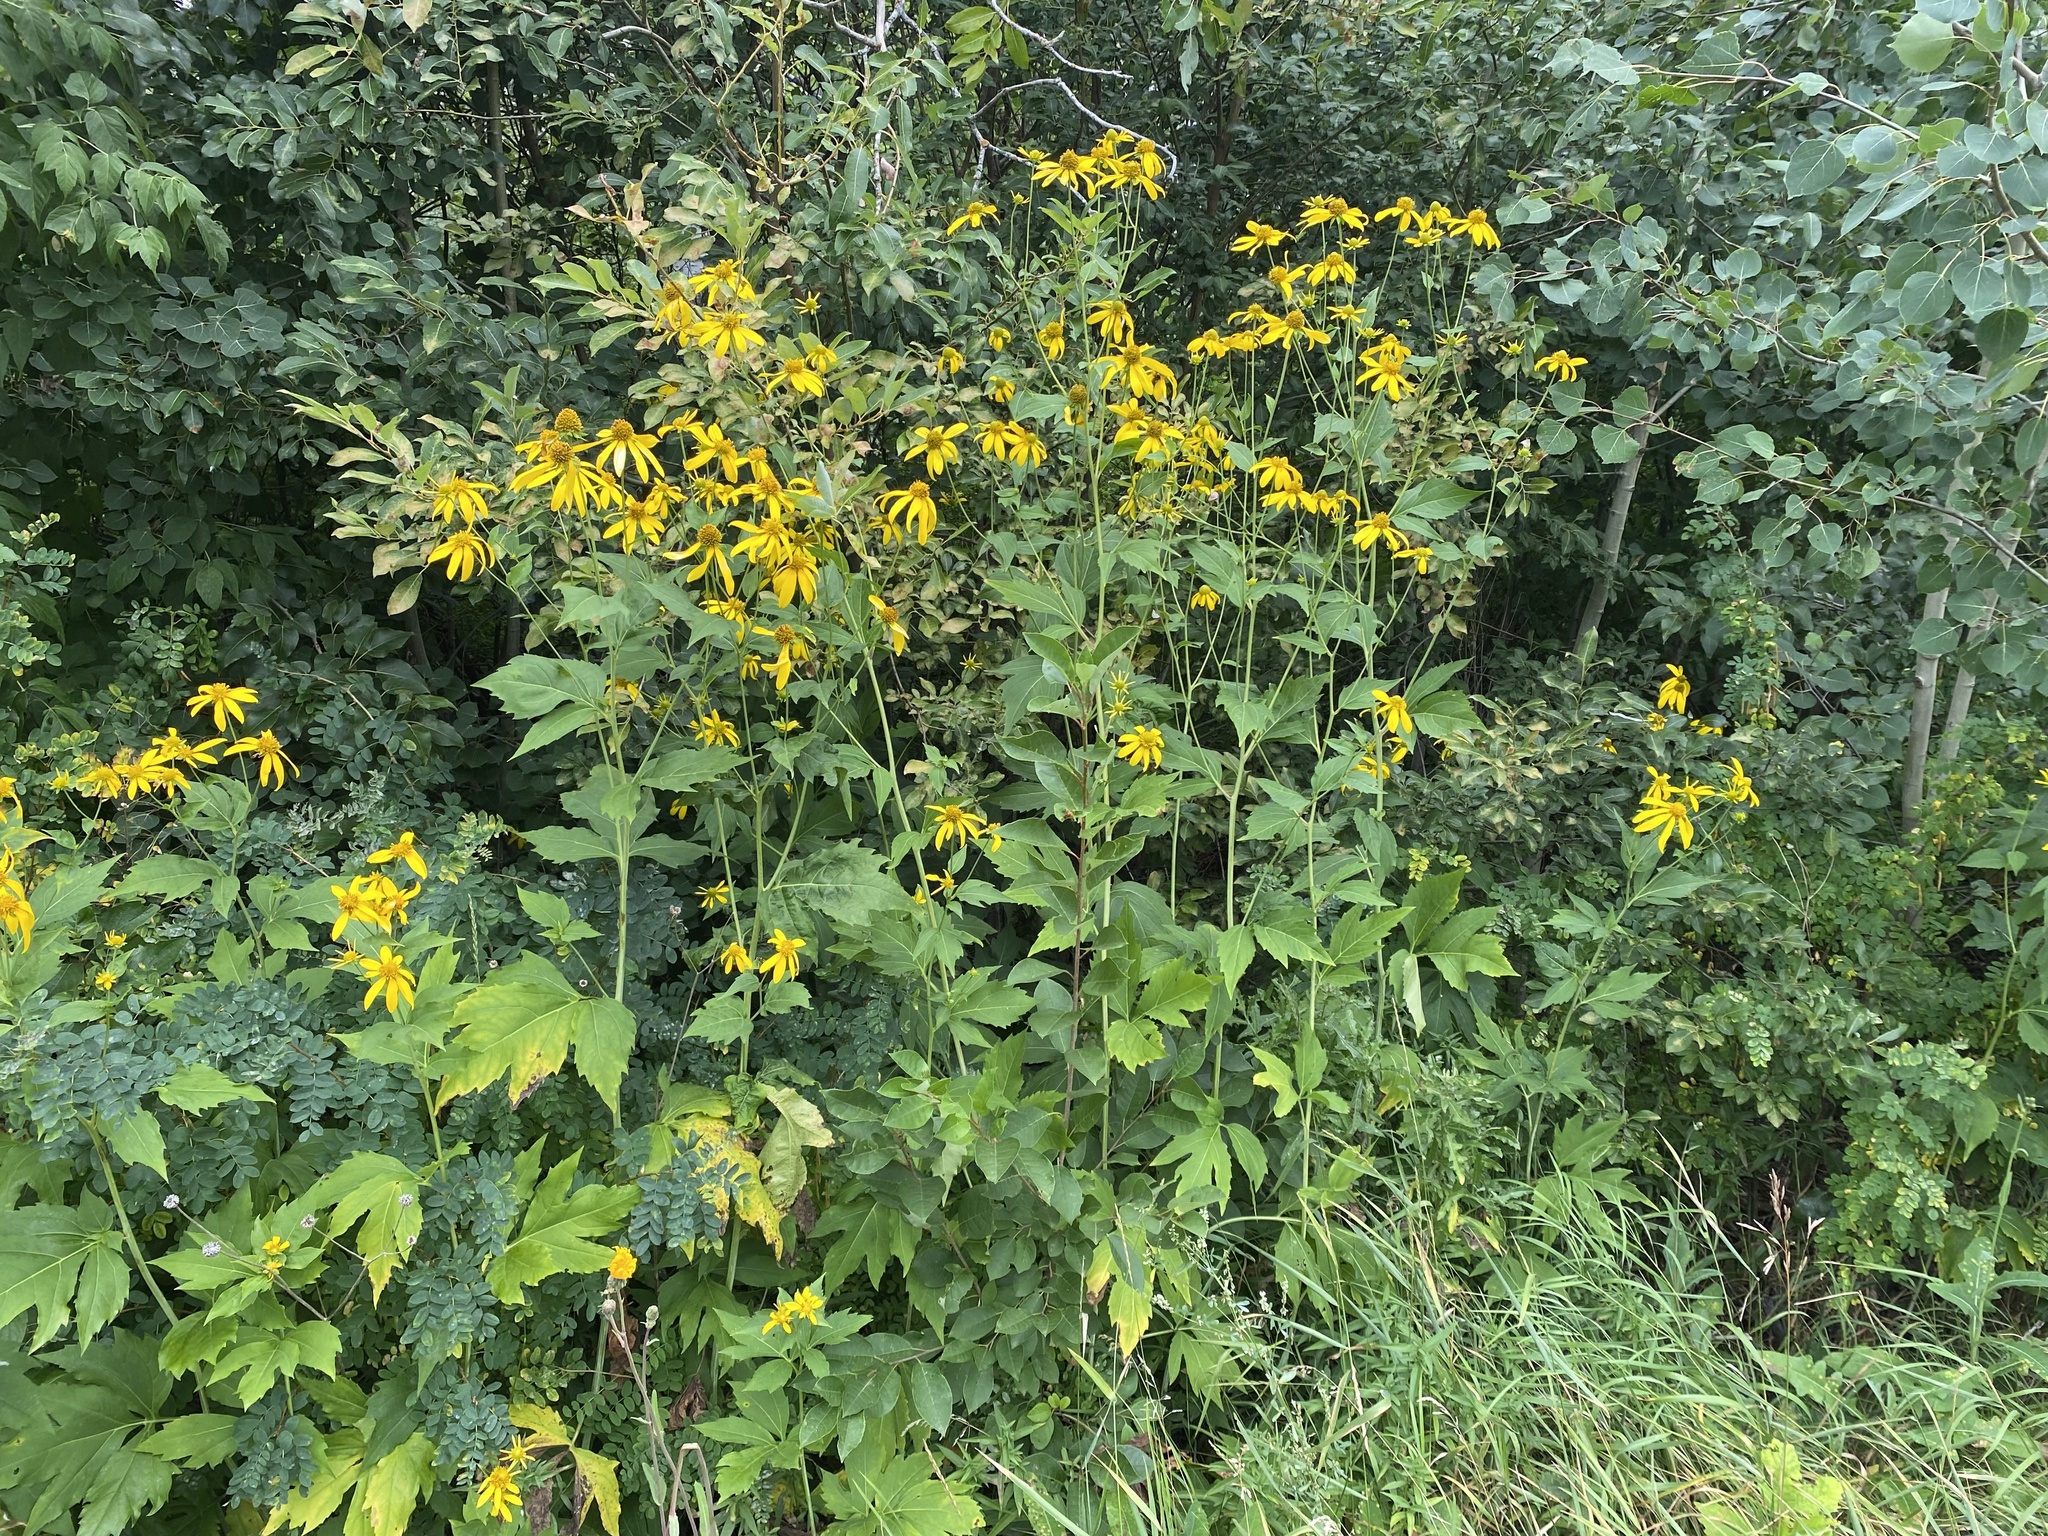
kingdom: Plantae
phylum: Tracheophyta
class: Magnoliopsida
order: Asterales
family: Asteraceae
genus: Rudbeckia
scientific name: Rudbeckia laciniata
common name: Coneflower
